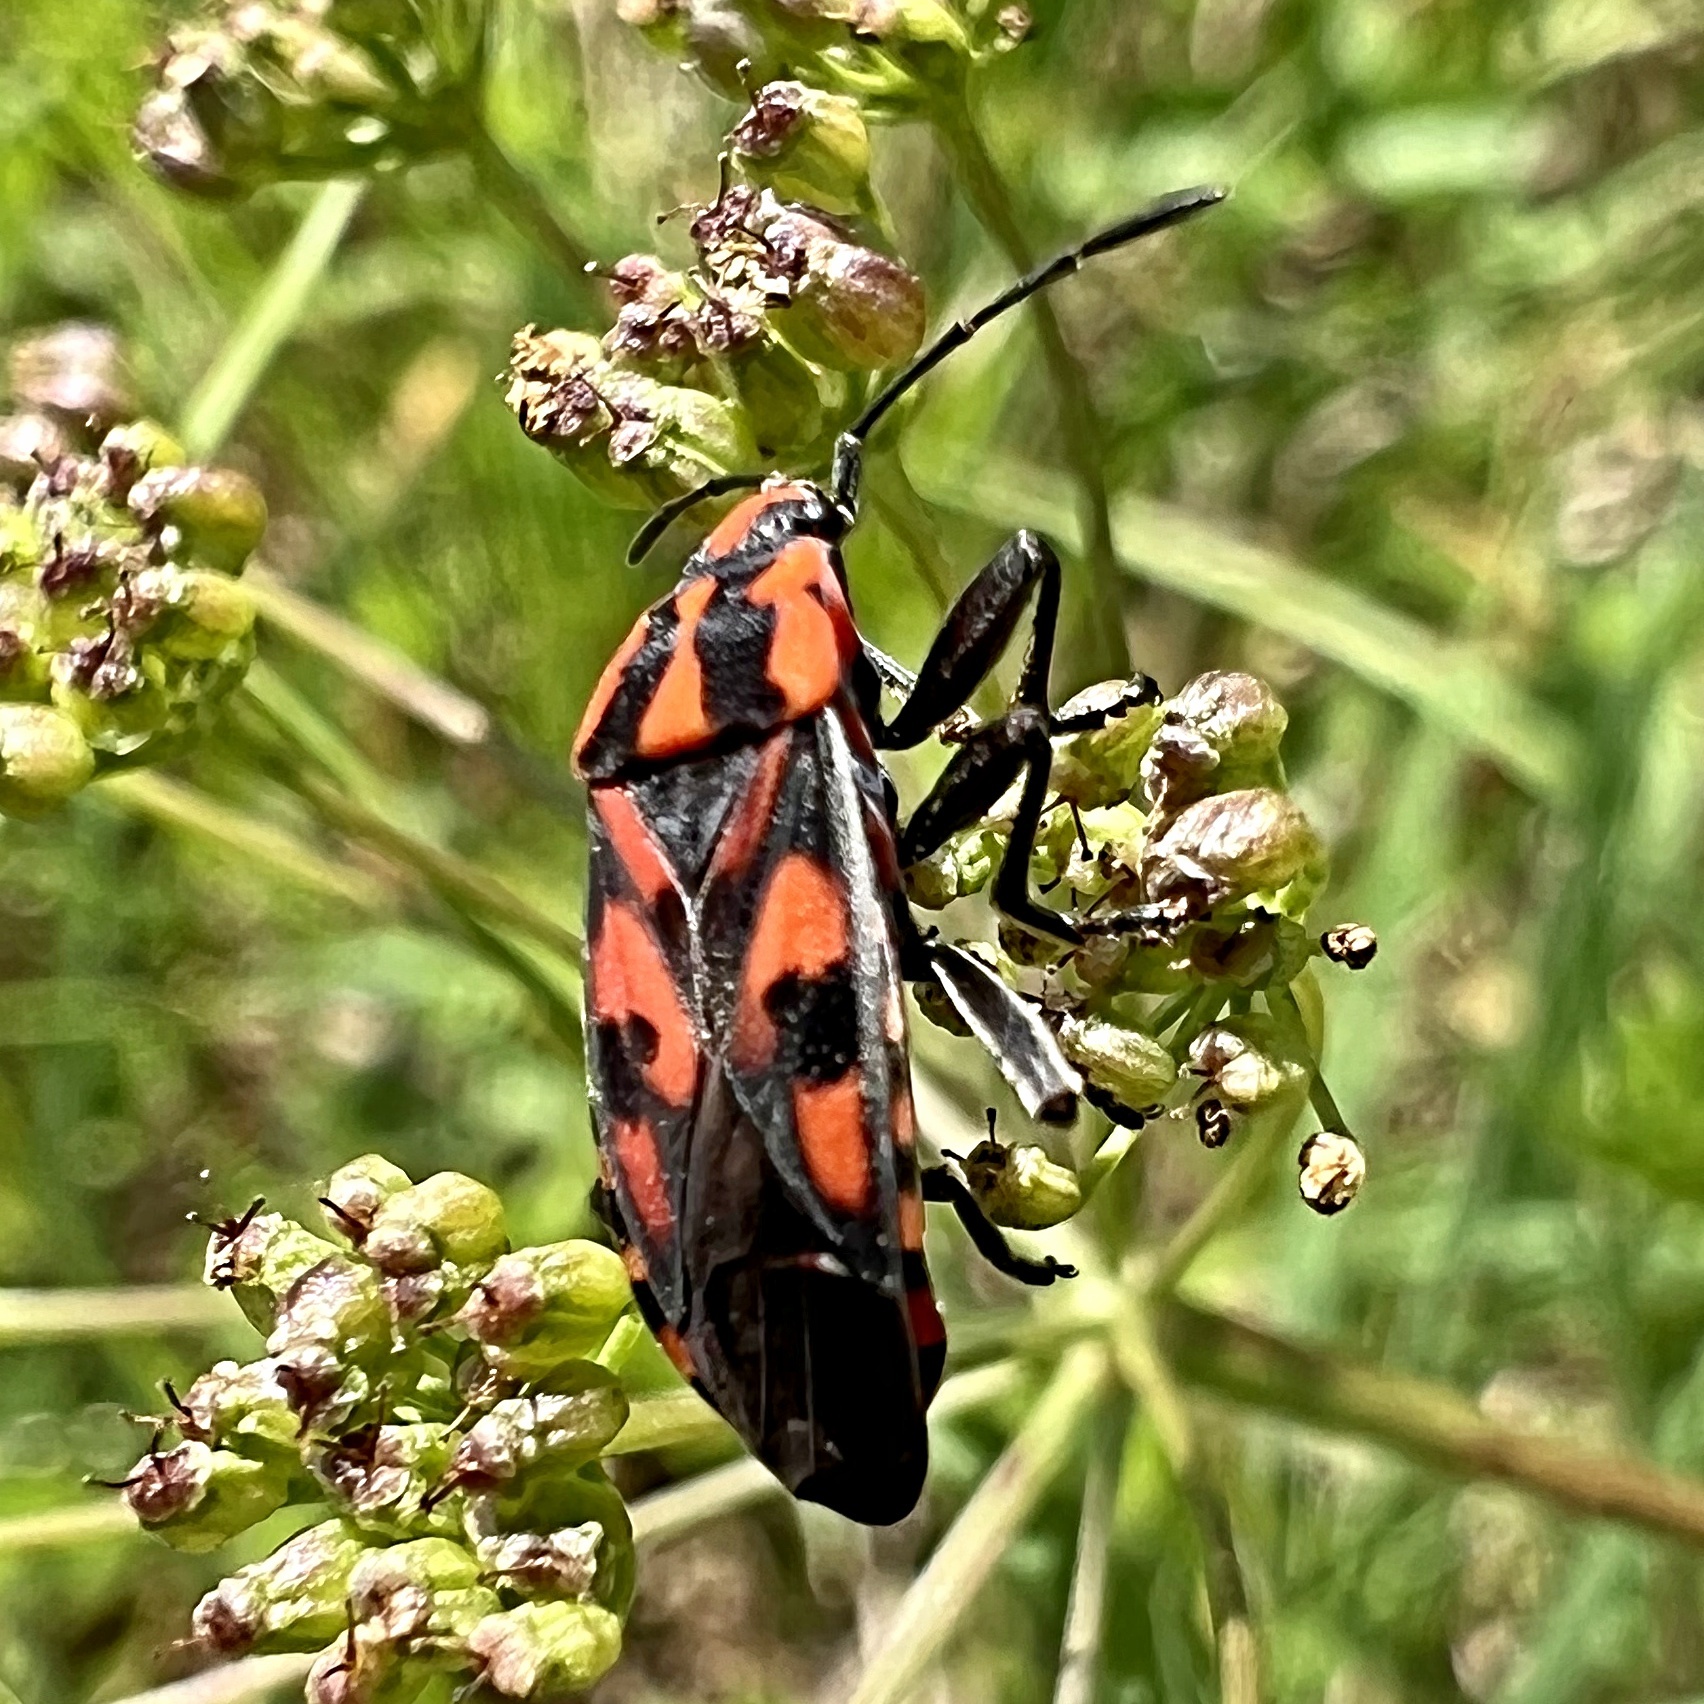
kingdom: Animalia
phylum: Arthropoda
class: Insecta
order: Hemiptera
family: Lygaeidae
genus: Spilostethus
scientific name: Spilostethus saxatilis
